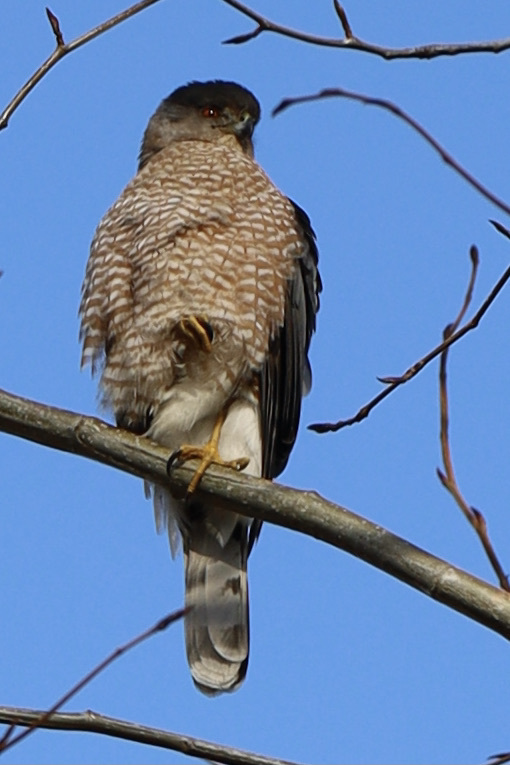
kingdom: Animalia
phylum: Chordata
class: Aves
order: Accipitriformes
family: Accipitridae
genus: Accipiter
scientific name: Accipiter cooperii
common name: Cooper's hawk
